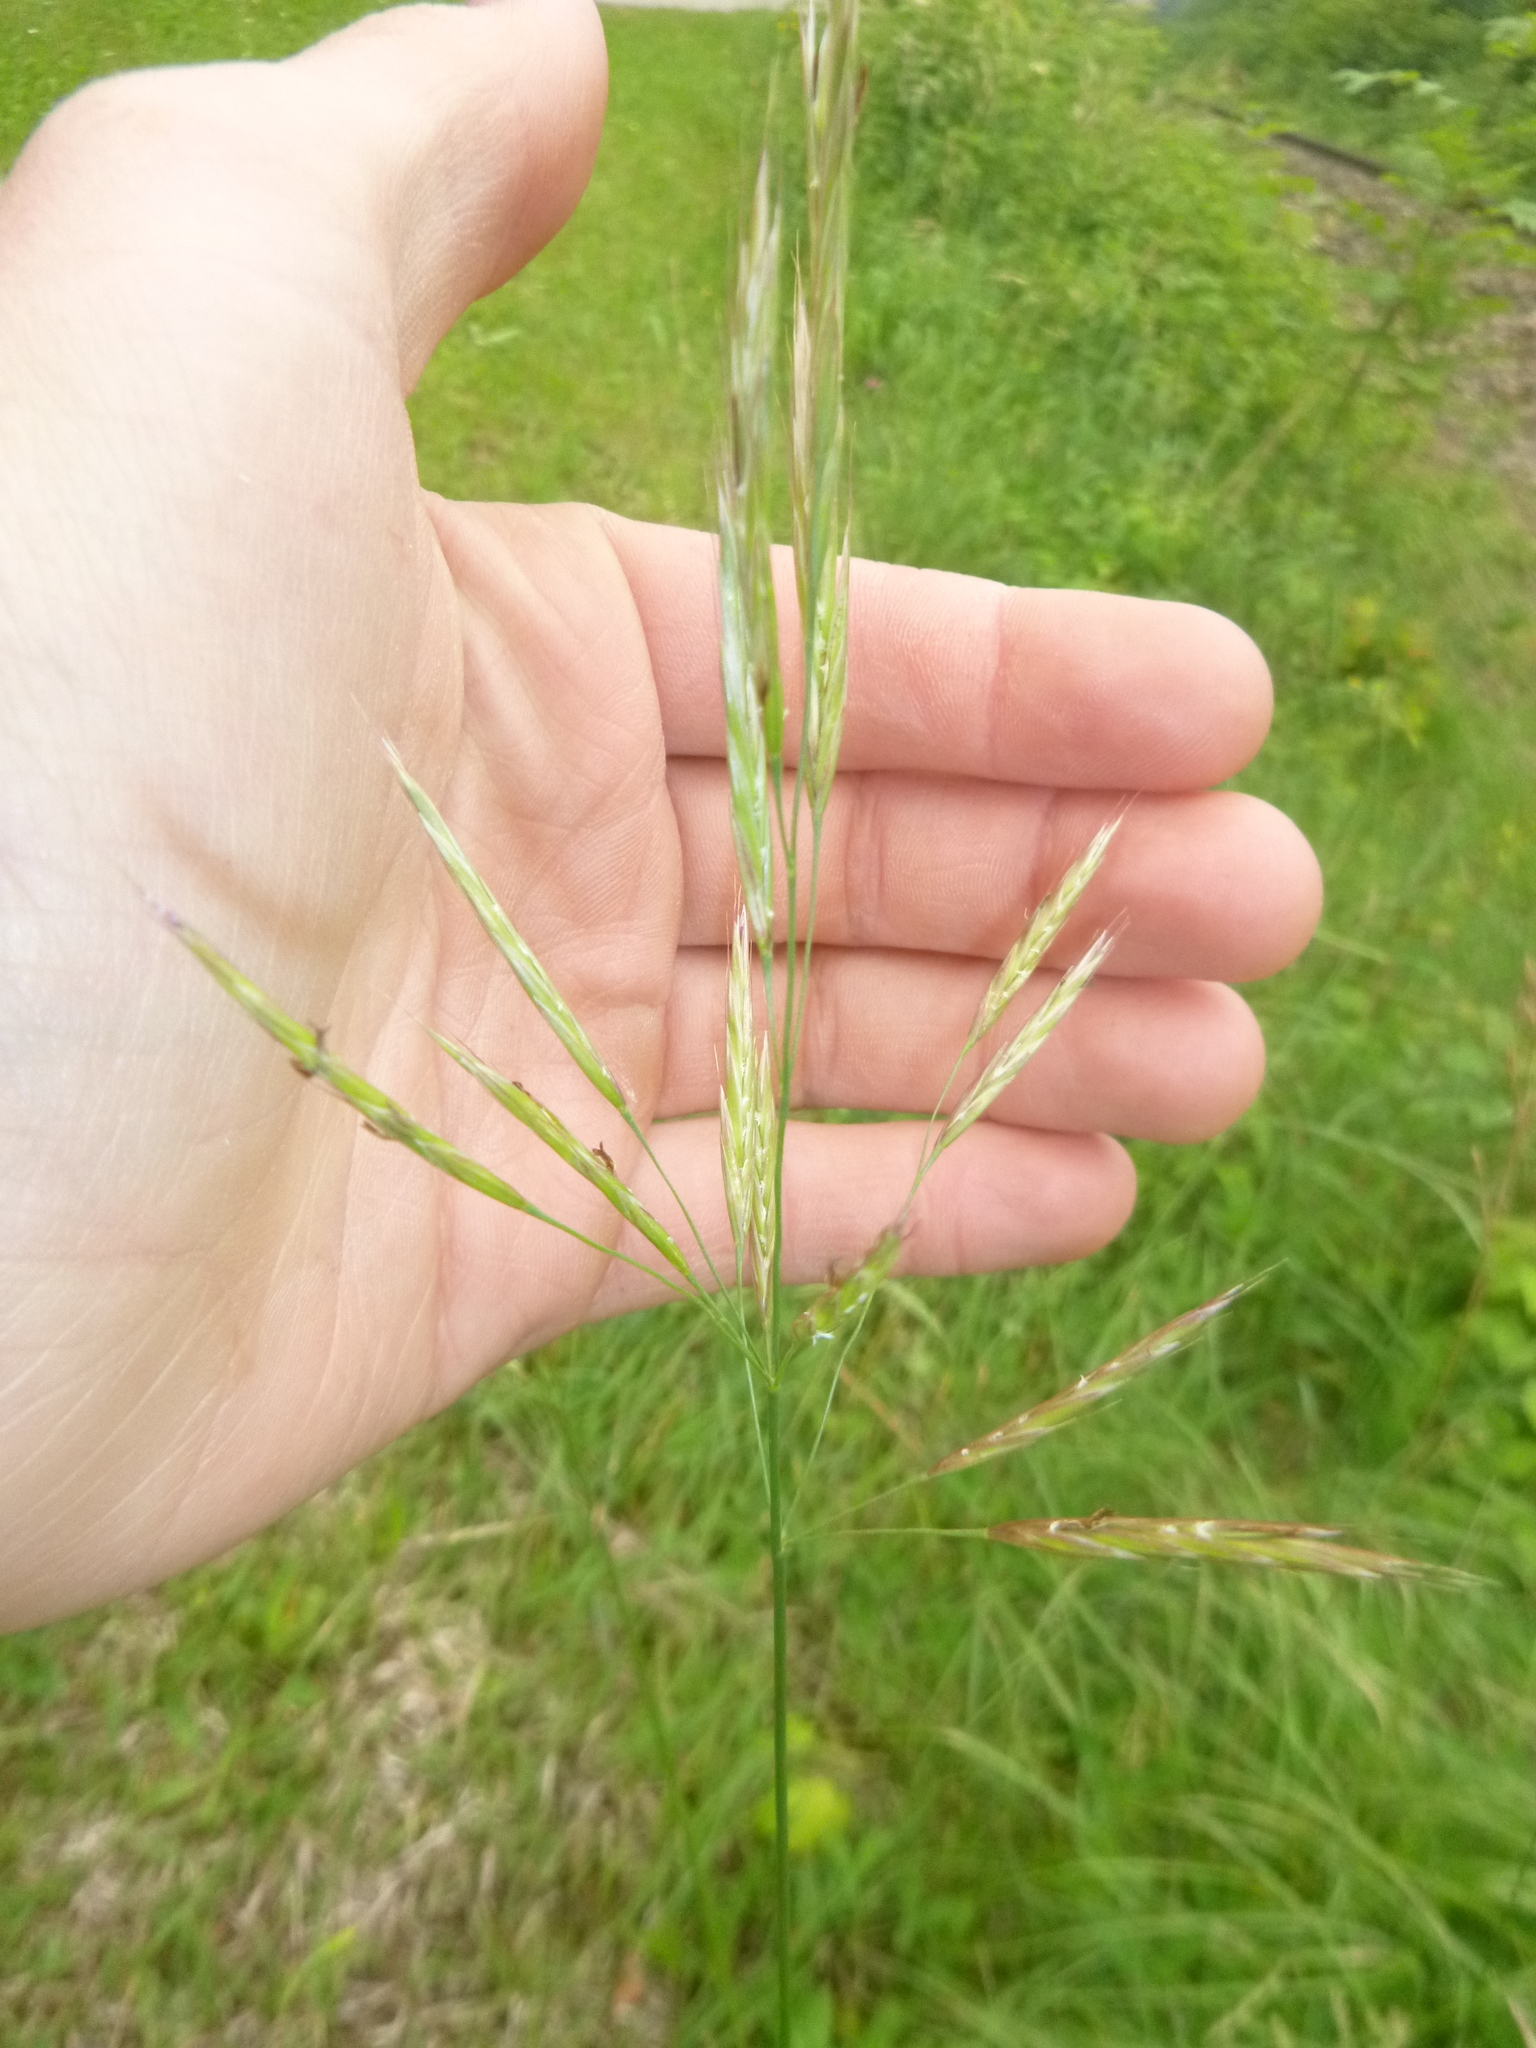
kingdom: Plantae
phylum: Tracheophyta
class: Liliopsida
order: Poales
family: Poaceae
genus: Bromus
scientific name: Bromus erectus
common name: Erect brome
